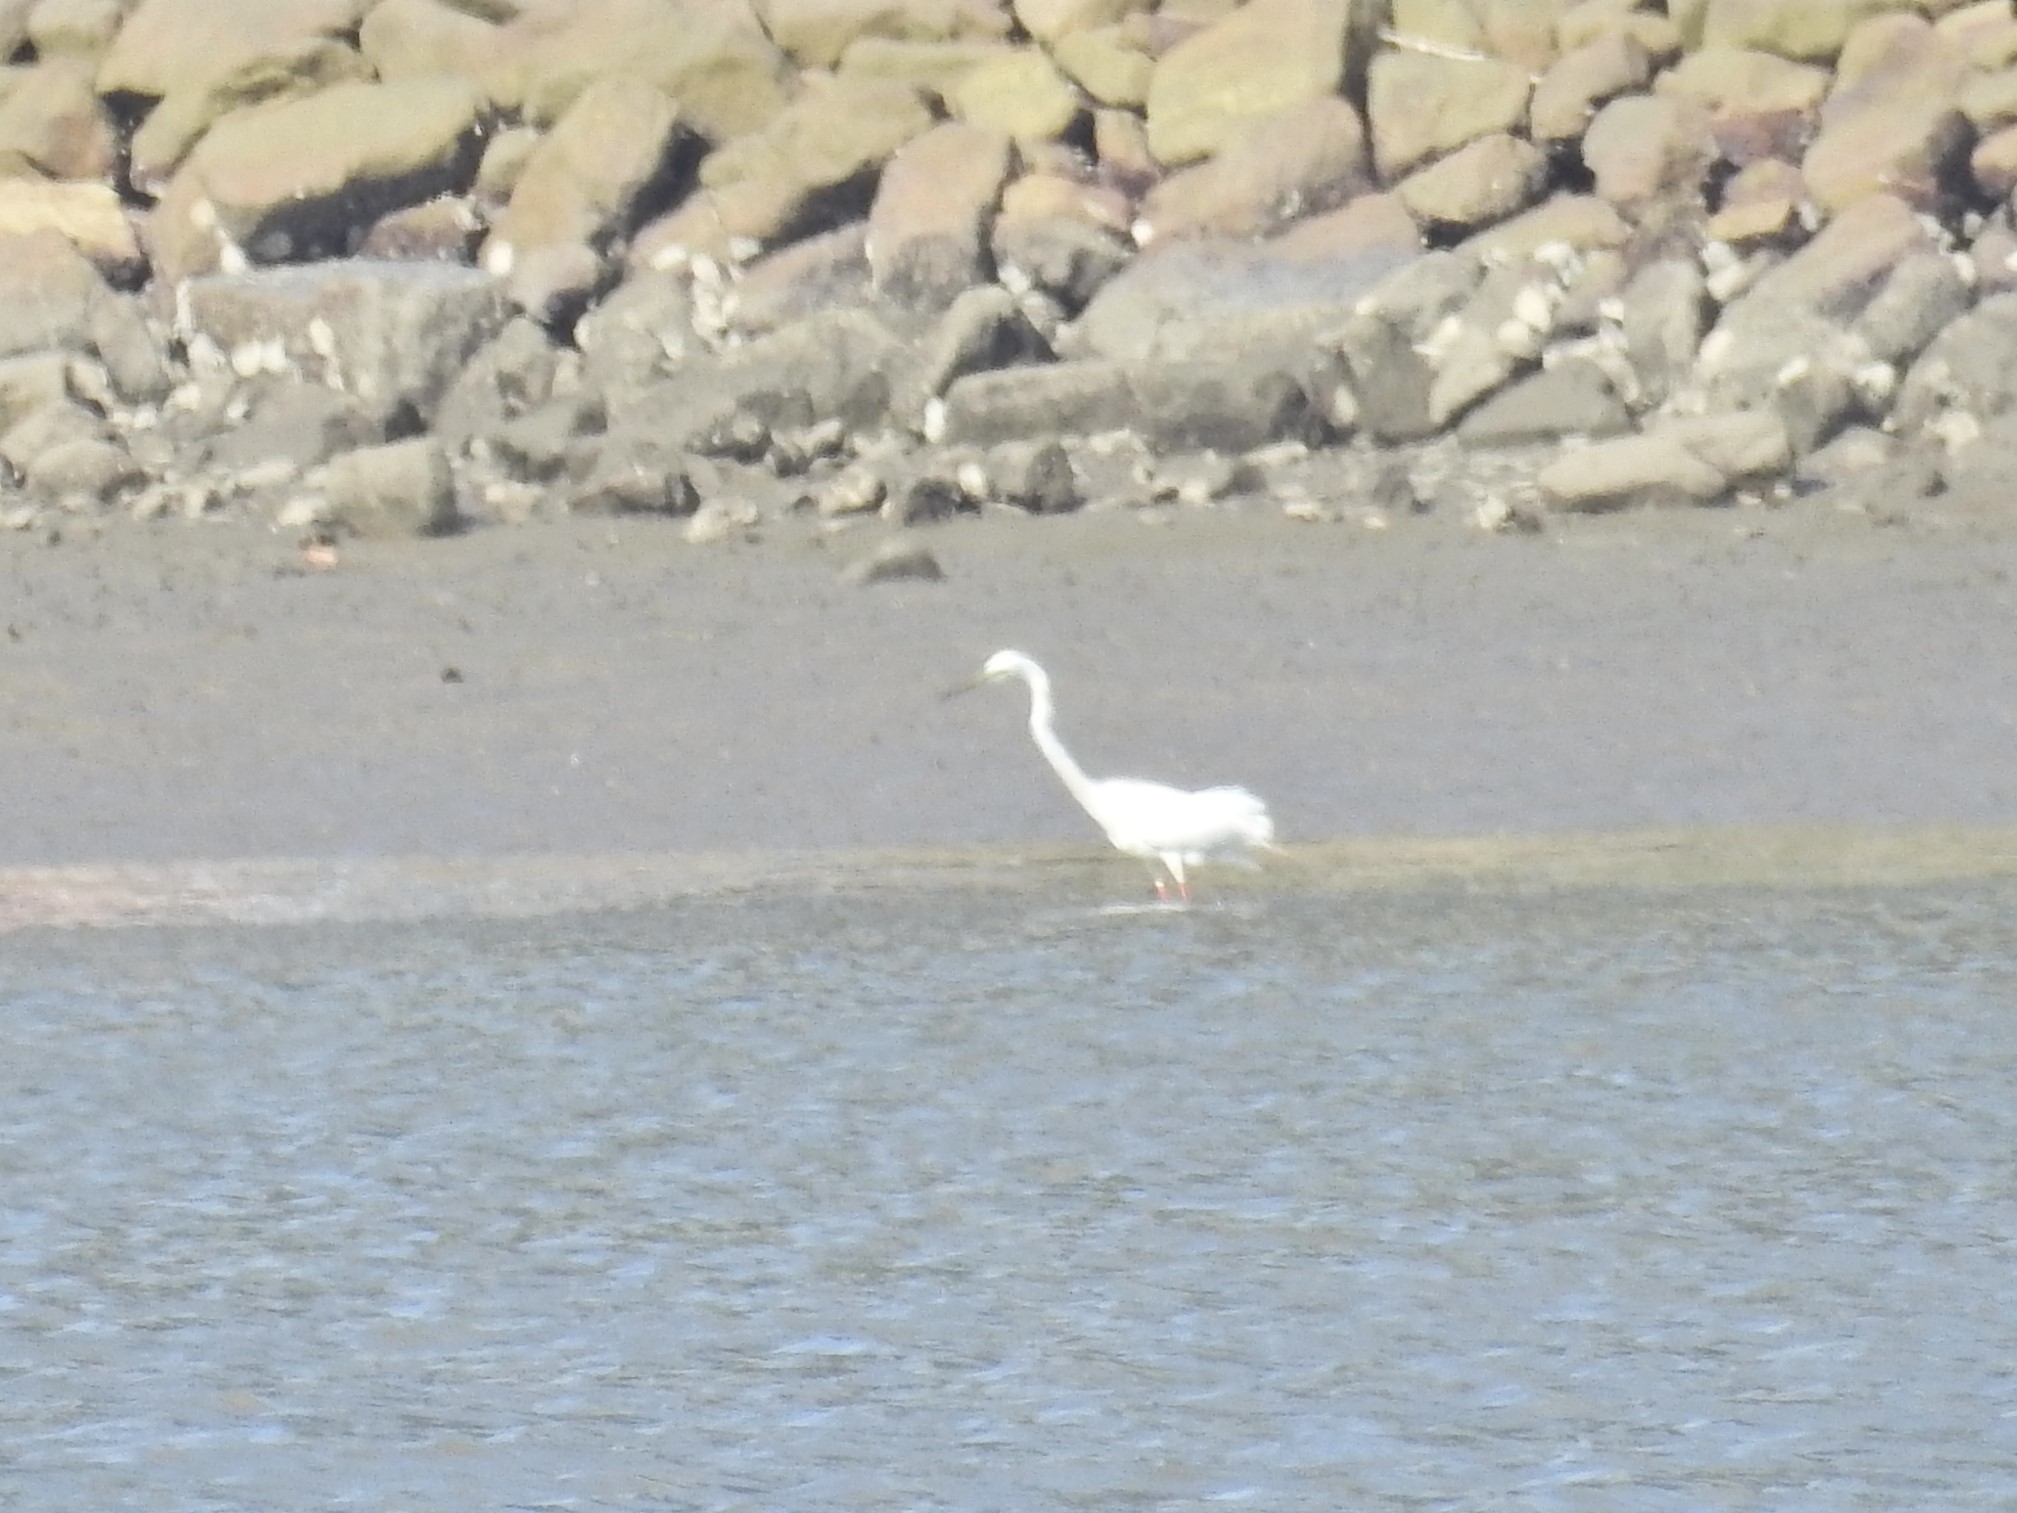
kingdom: Animalia
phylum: Chordata
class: Aves
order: Pelecaniformes
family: Ardeidae
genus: Ardea
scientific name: Ardea alba
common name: Great egret
